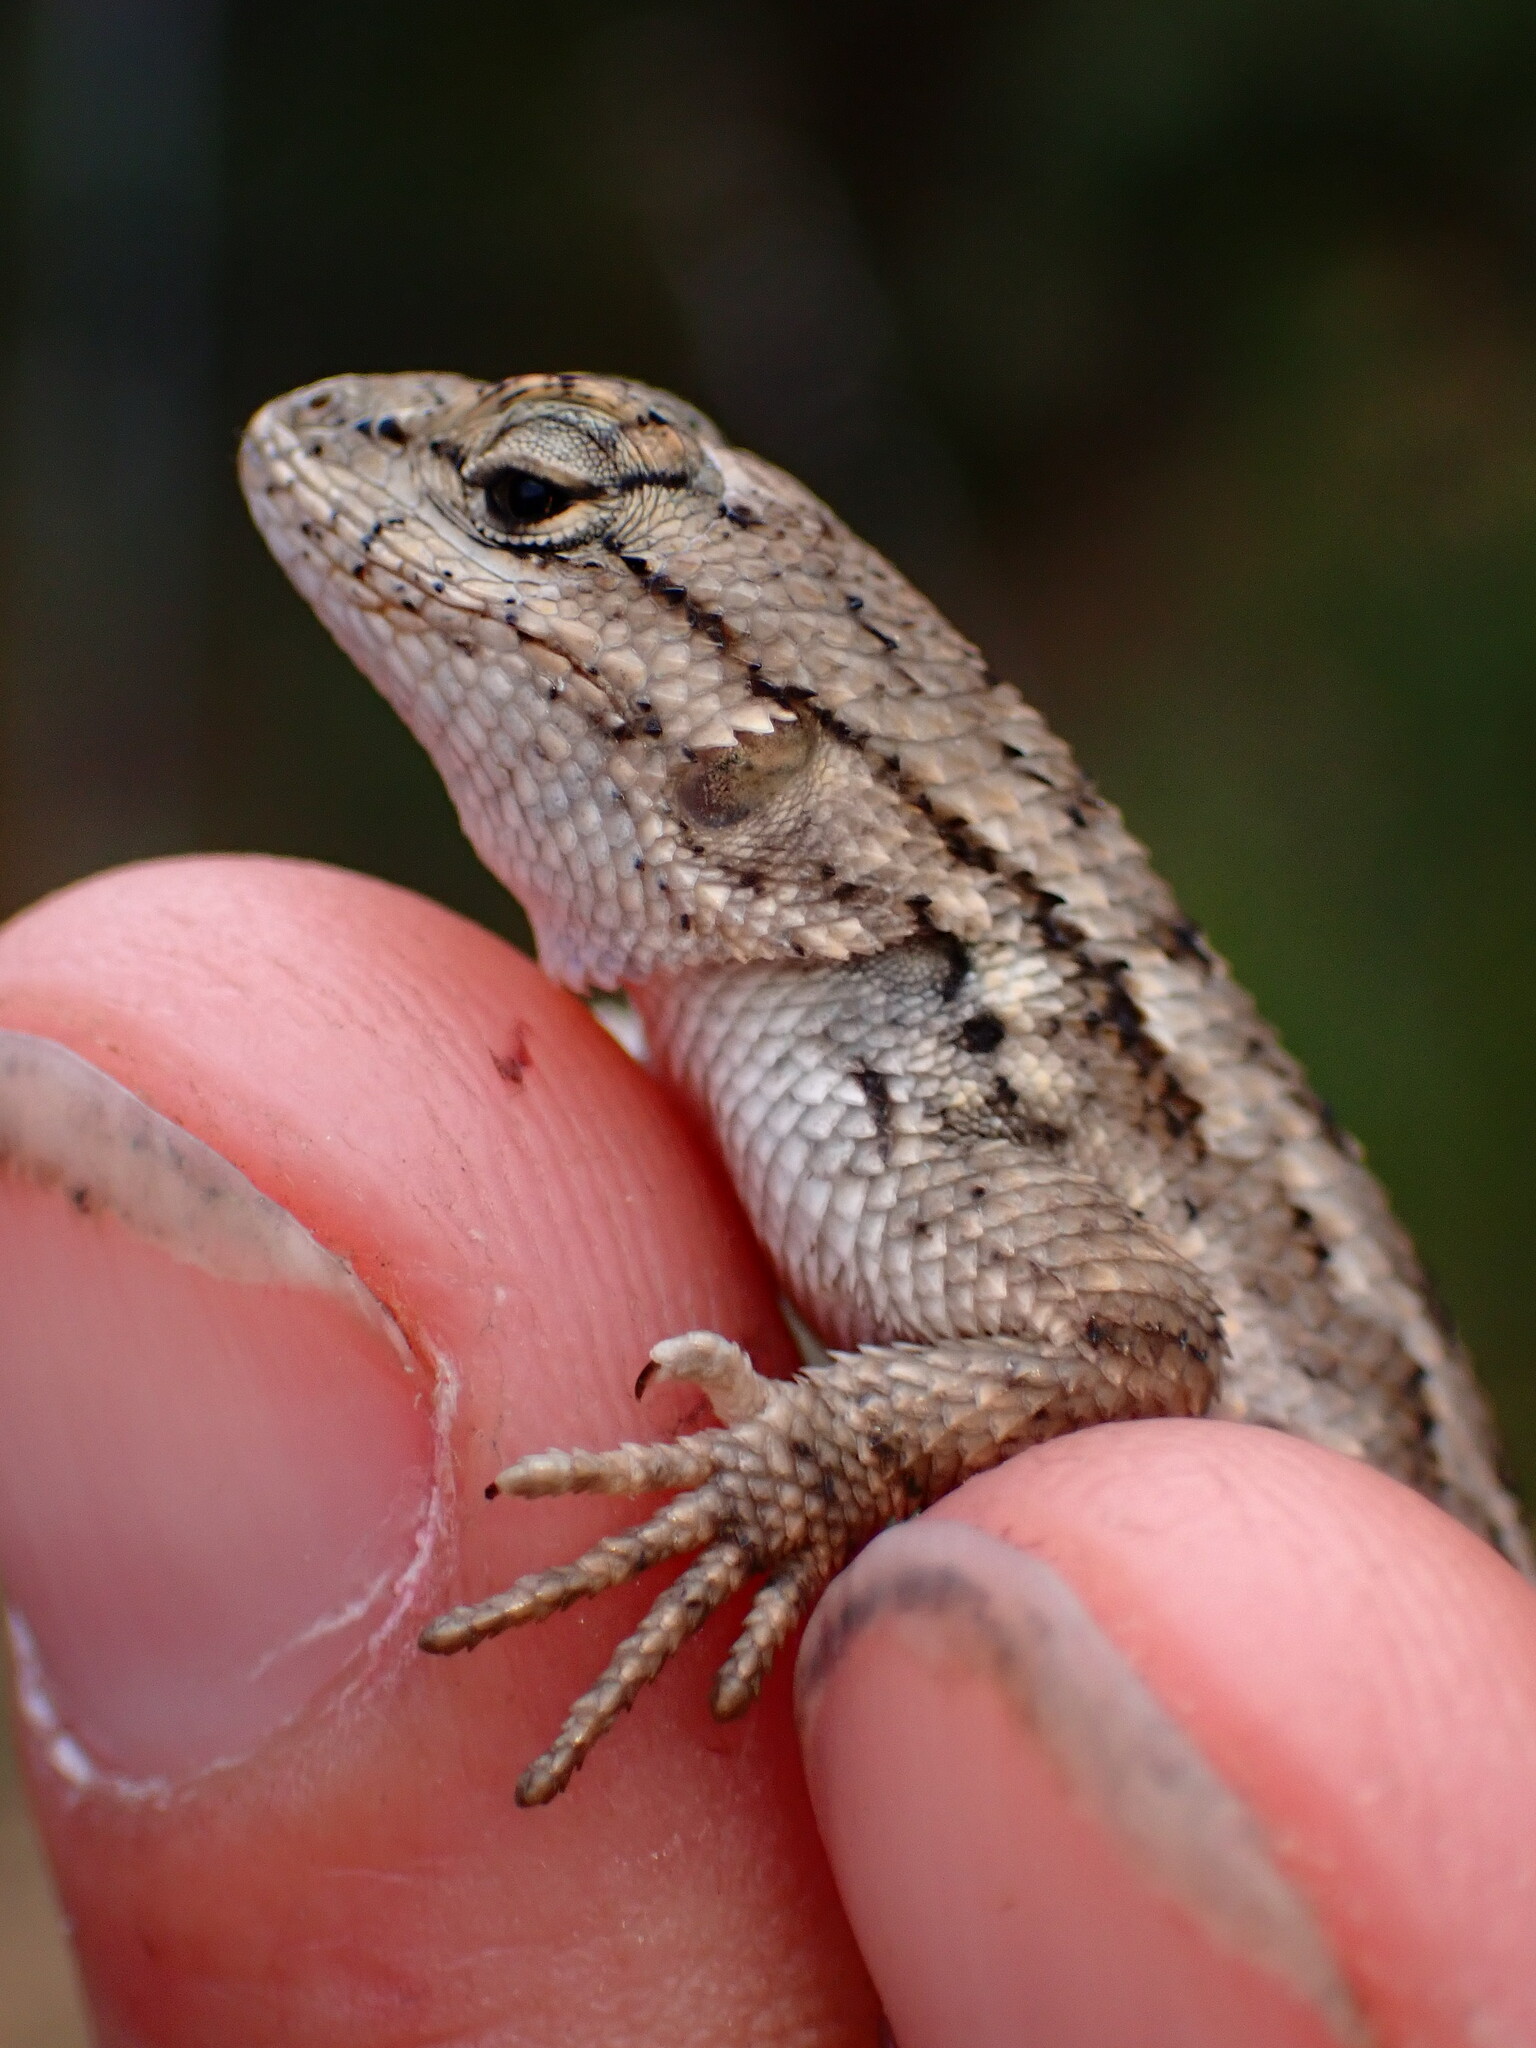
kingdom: Animalia
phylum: Chordata
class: Squamata
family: Phrynosomatidae
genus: Sceloporus
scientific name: Sceloporus occidentalis
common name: Western fence lizard
